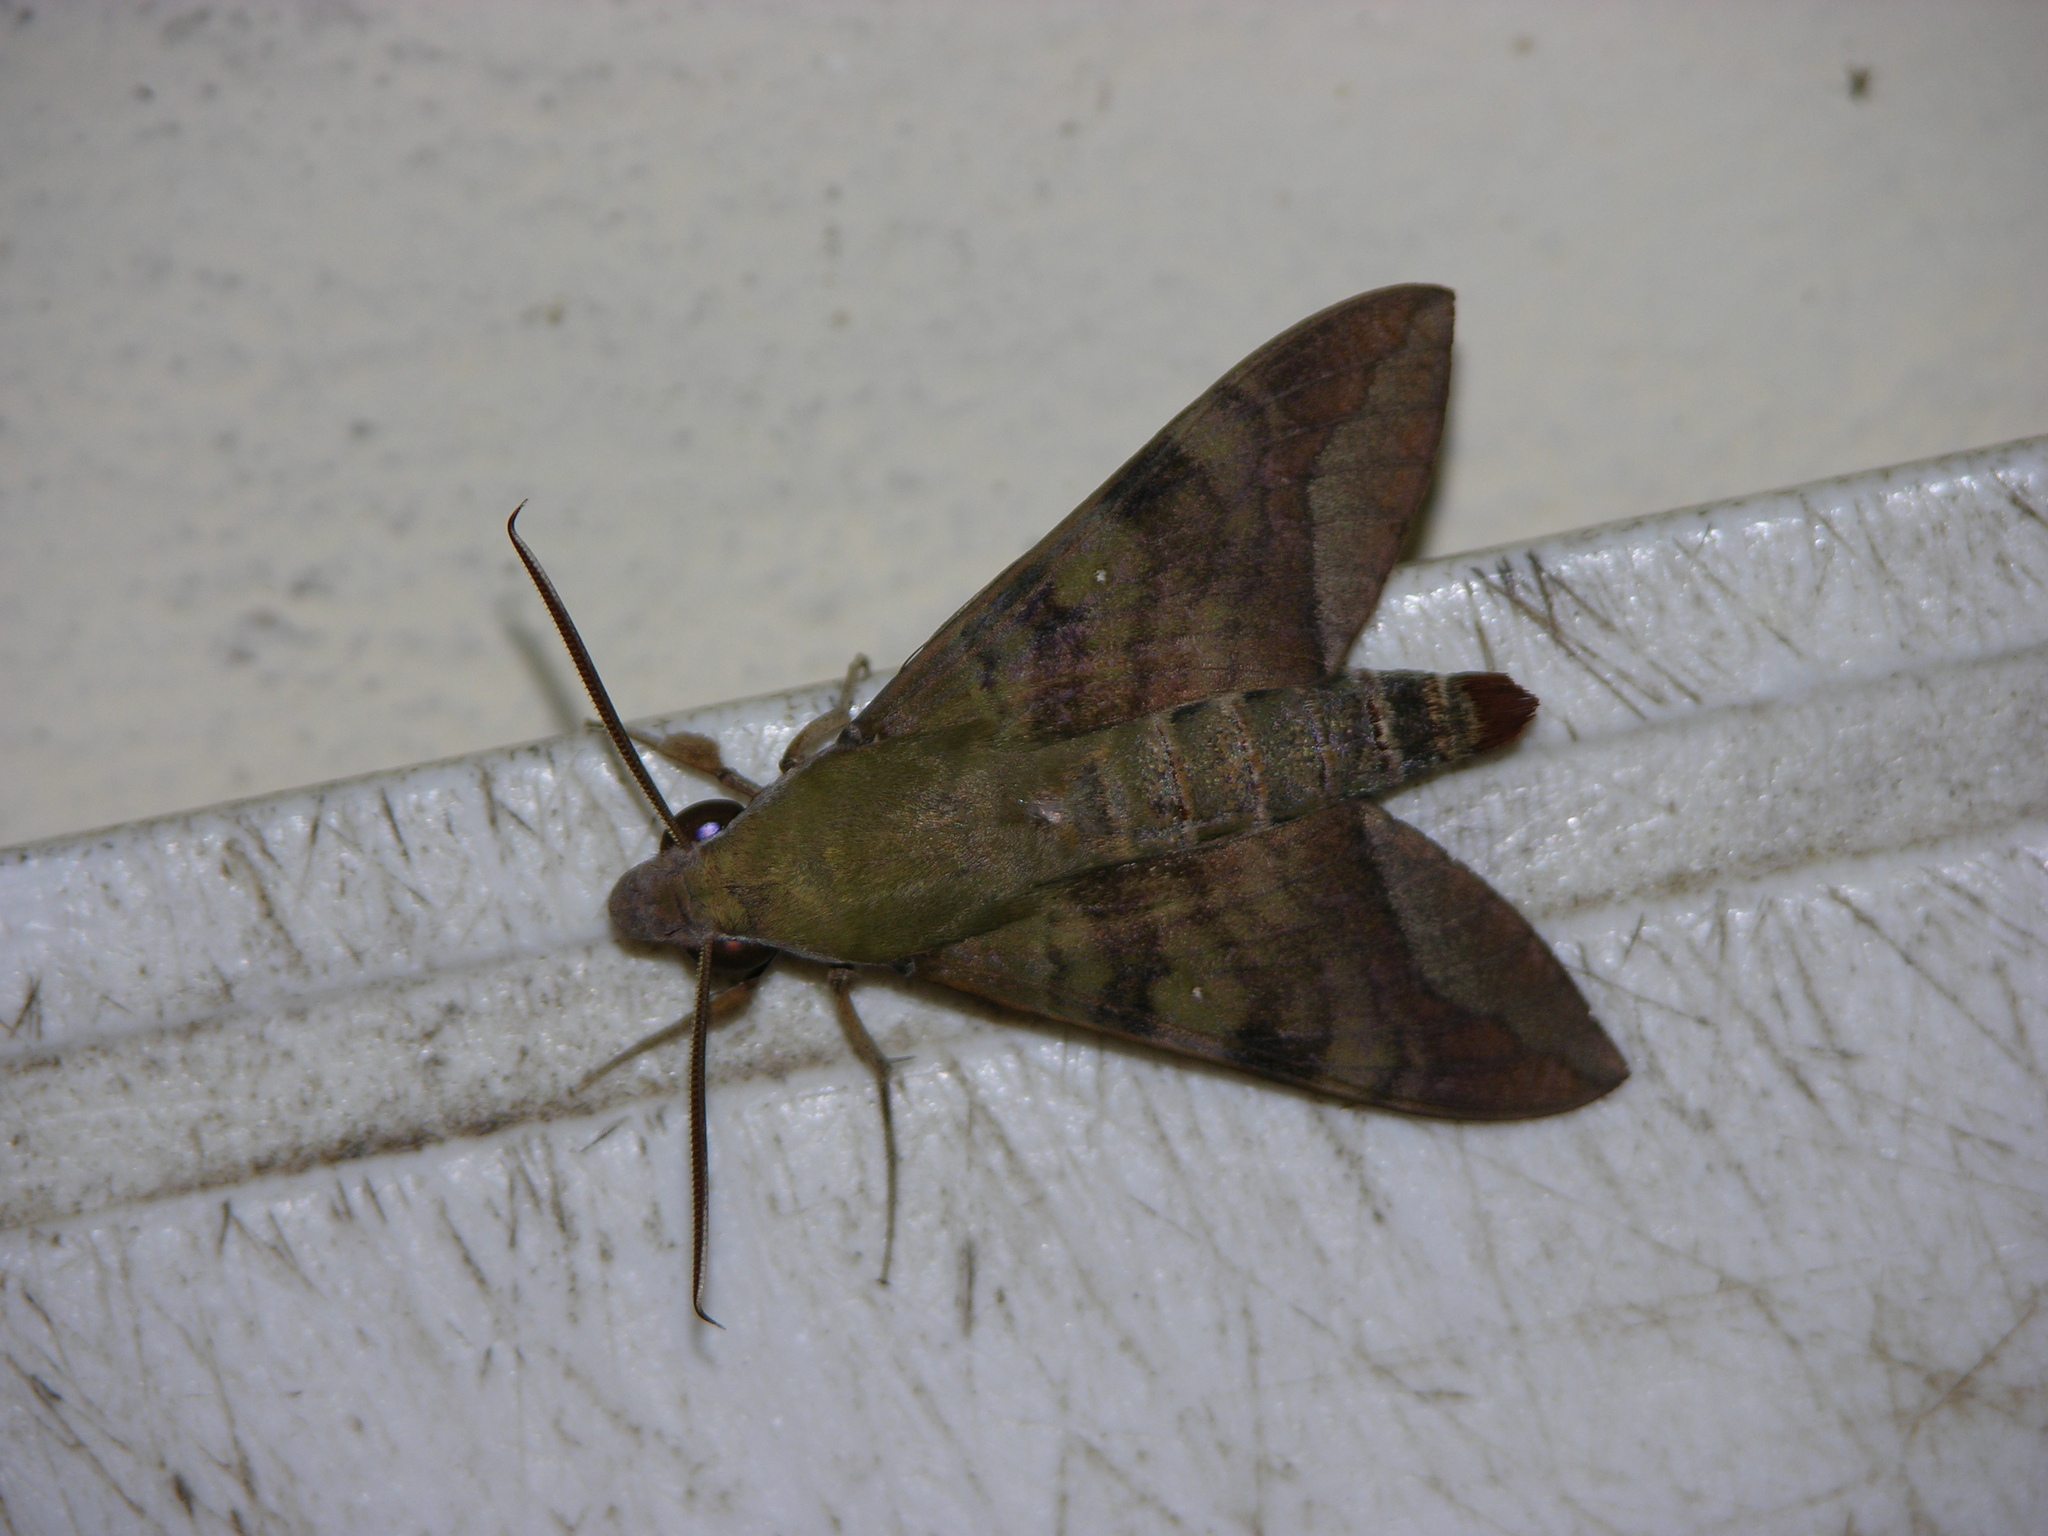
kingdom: Animalia
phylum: Arthropoda
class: Insecta
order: Lepidoptera
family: Sphingidae
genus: Nephele
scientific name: Nephele comma
